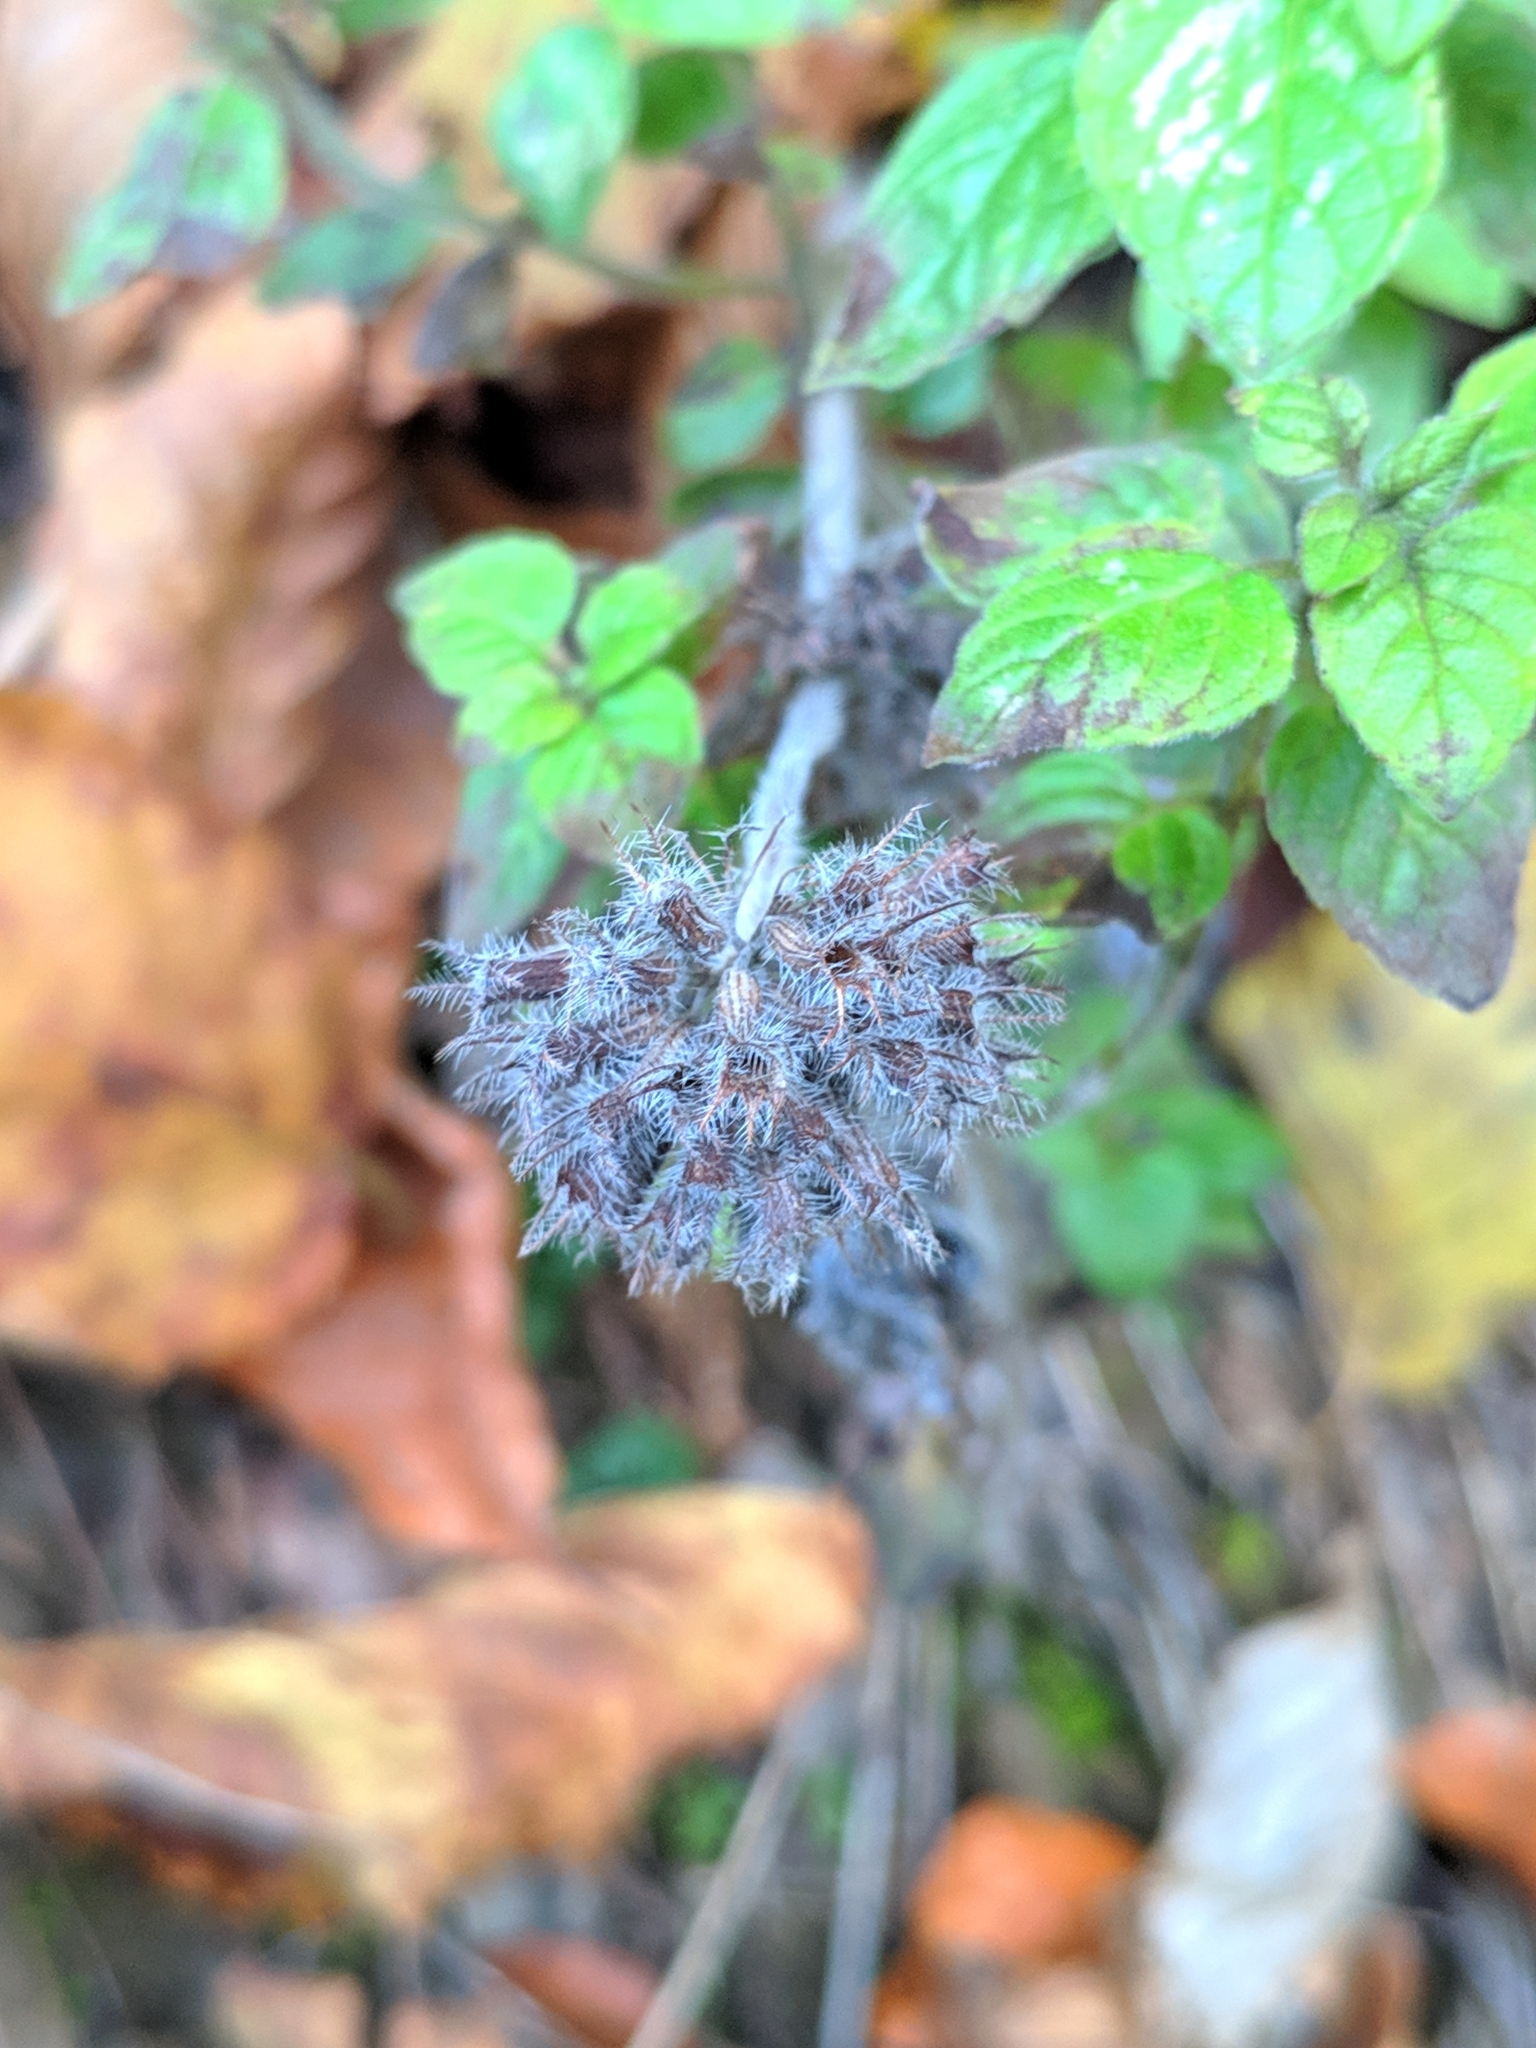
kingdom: Plantae
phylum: Tracheophyta
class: Magnoliopsida
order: Lamiales
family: Lamiaceae
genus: Clinopodium
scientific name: Clinopodium vulgare
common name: Wild basil
